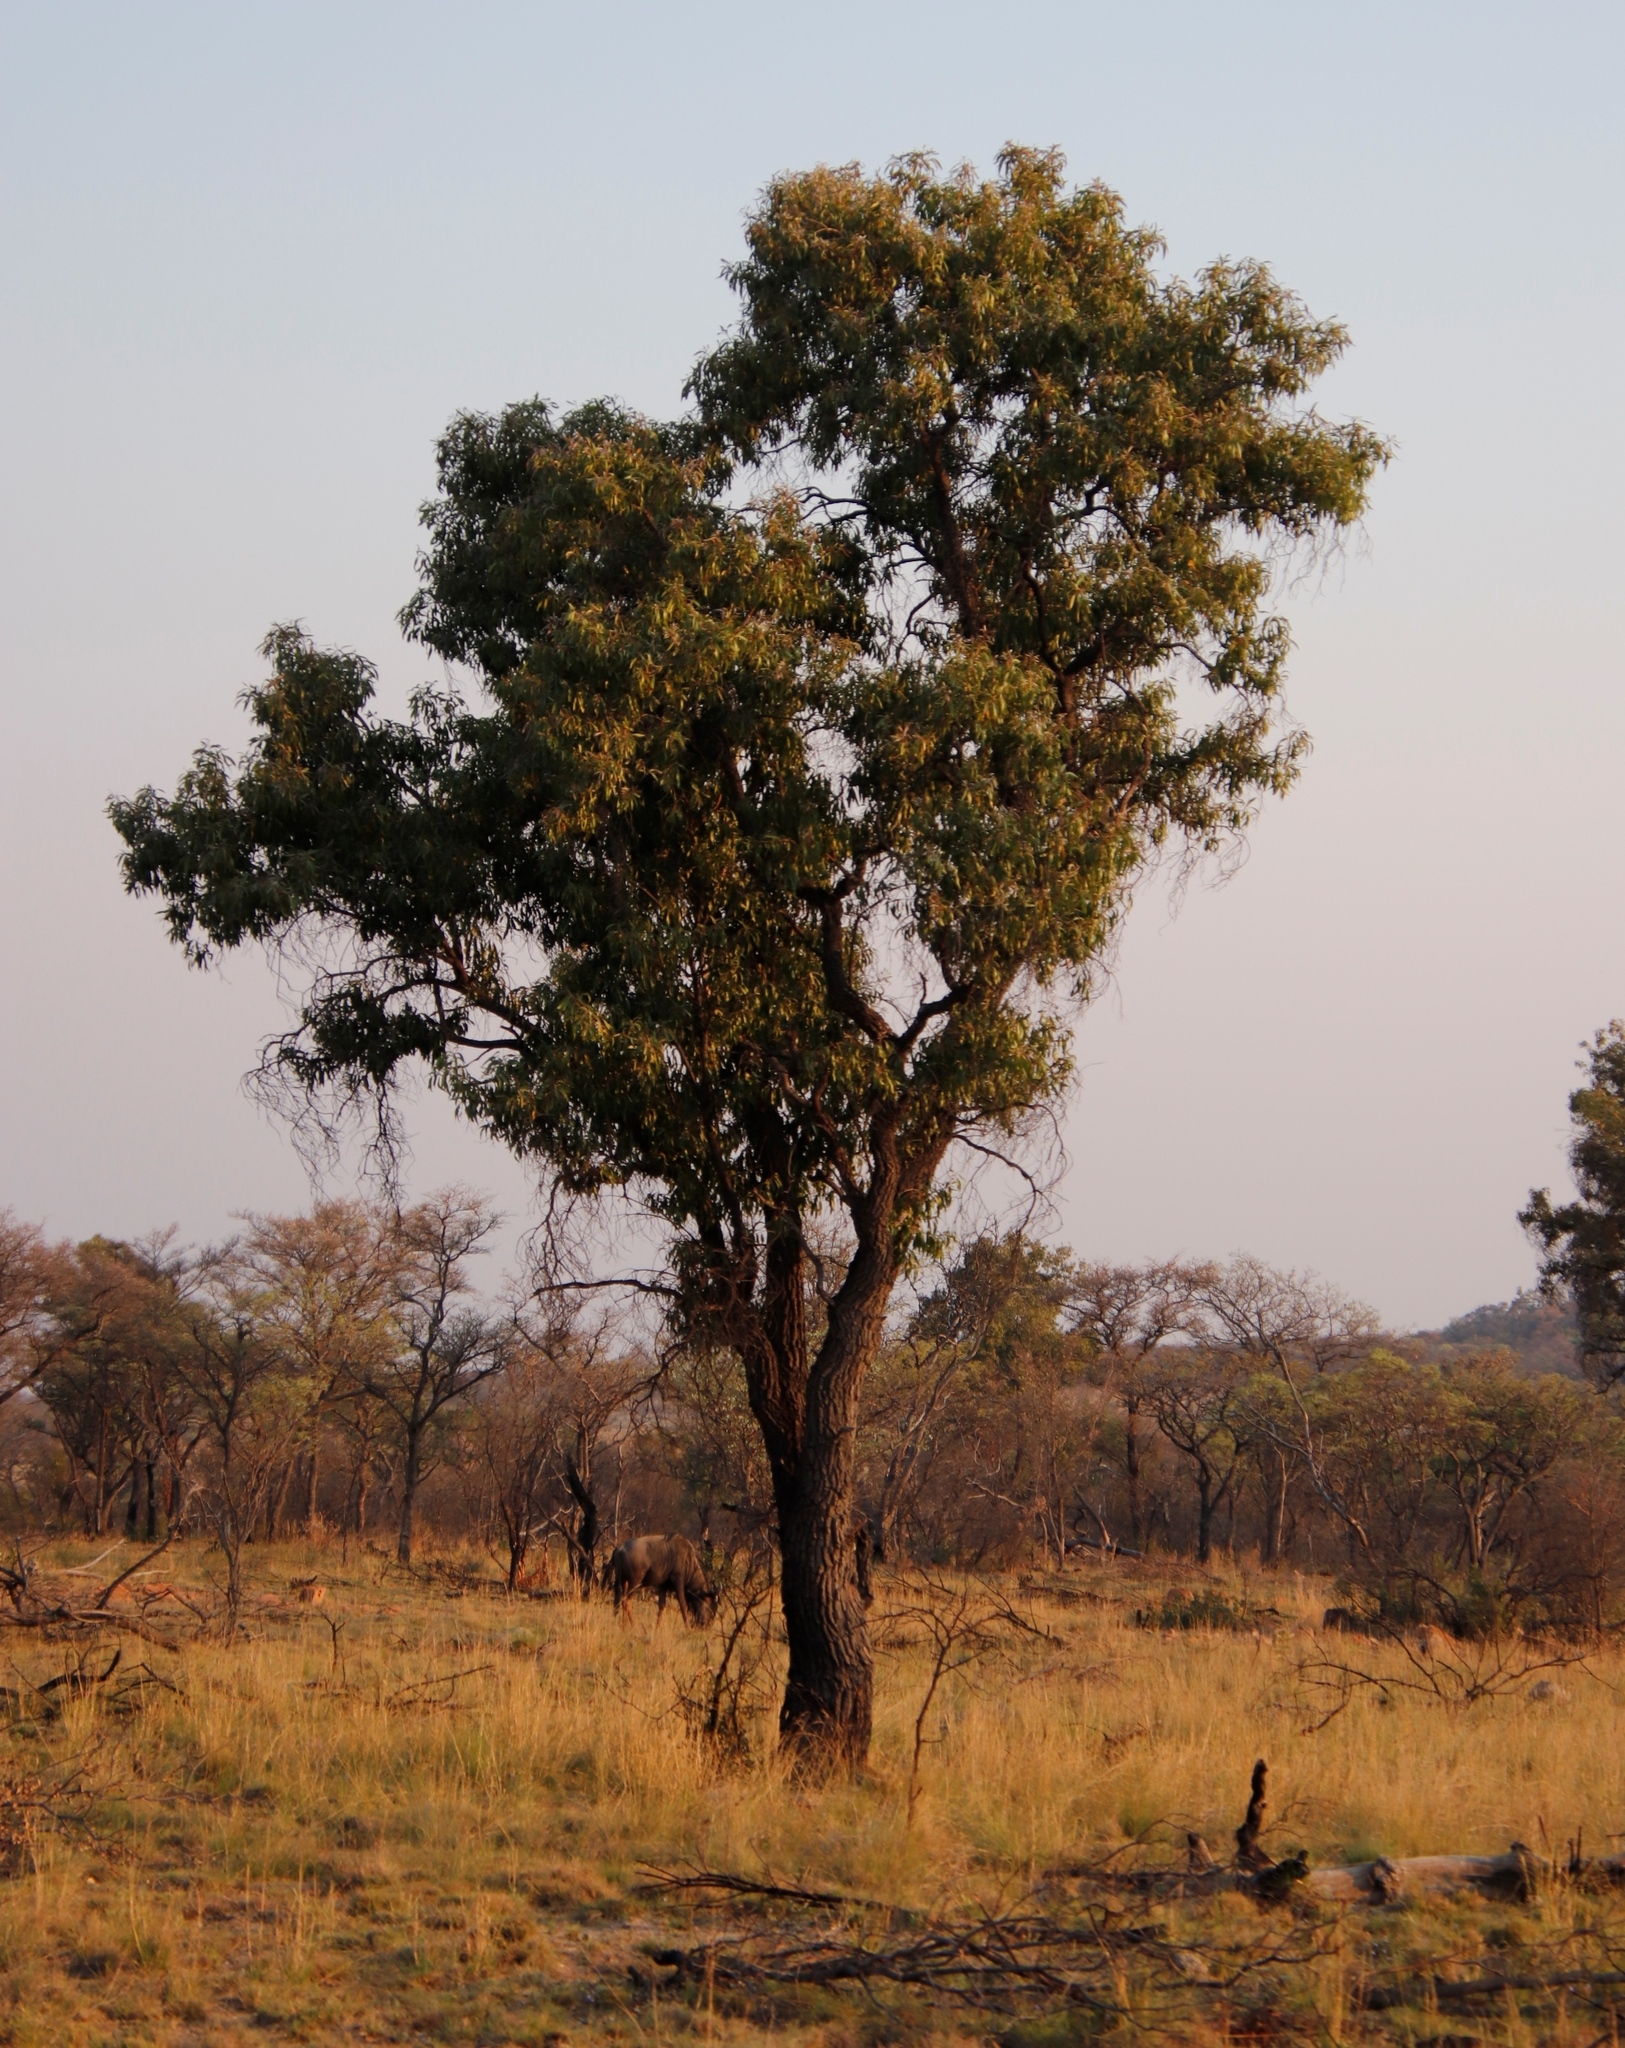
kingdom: Plantae
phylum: Tracheophyta
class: Magnoliopsida
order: Proteales
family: Proteaceae
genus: Faurea
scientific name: Faurea saligna
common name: African bean
